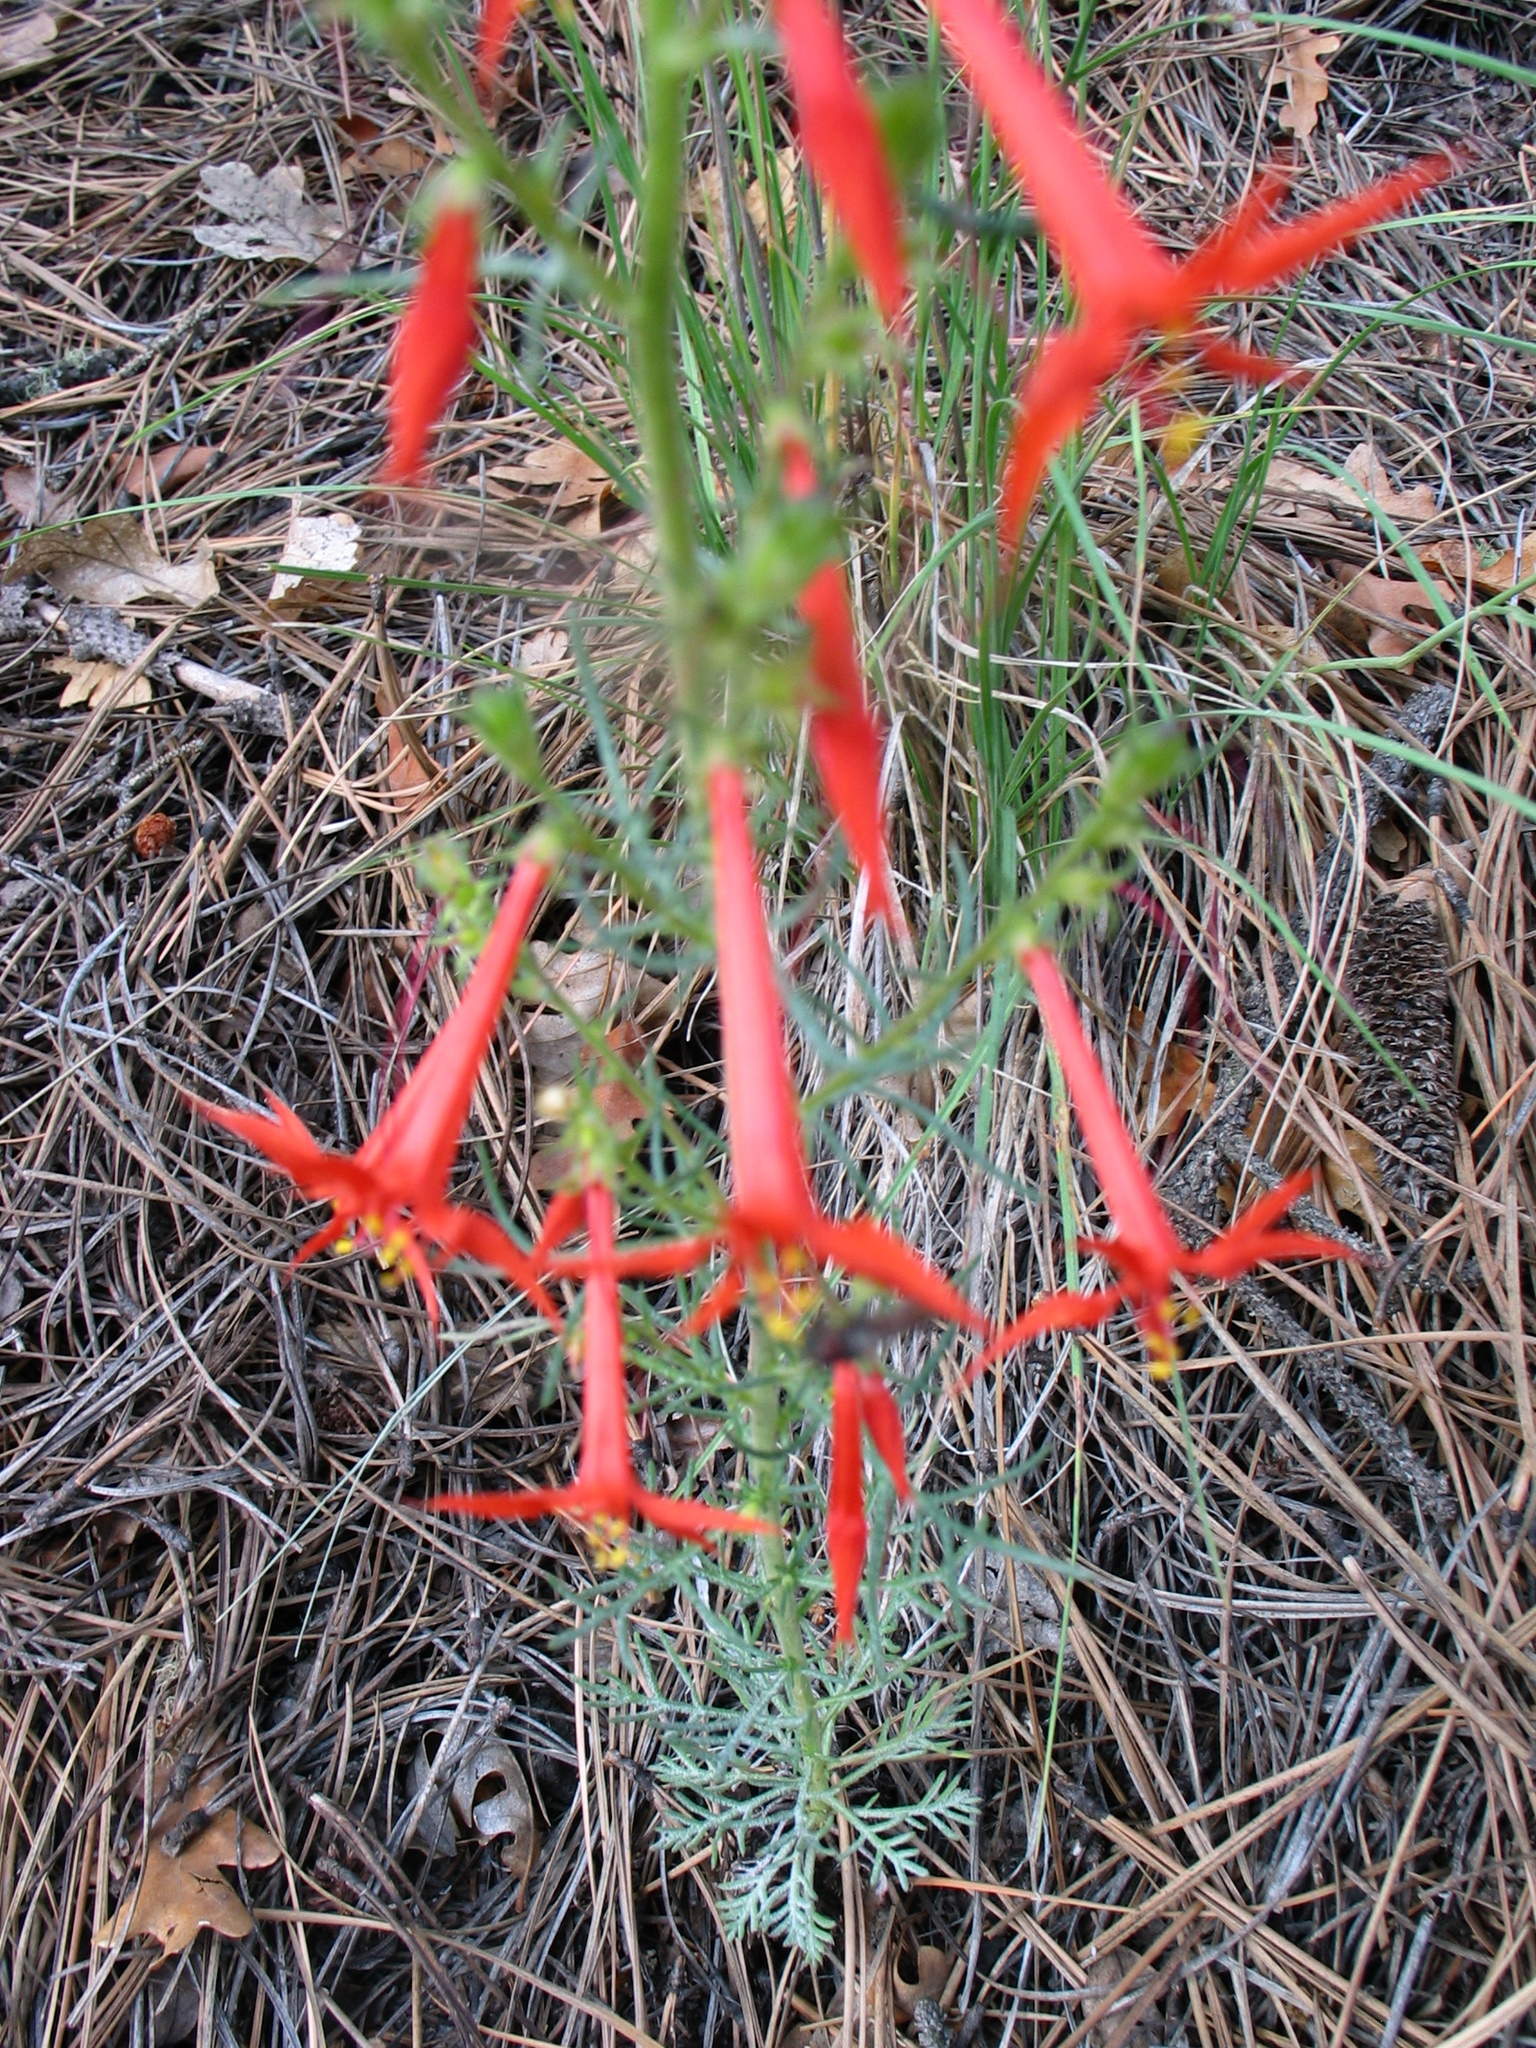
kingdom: Plantae
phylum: Tracheophyta
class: Magnoliopsida
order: Ericales
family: Polemoniaceae
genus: Ipomopsis
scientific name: Ipomopsis aggregata
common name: Scarlet gilia
